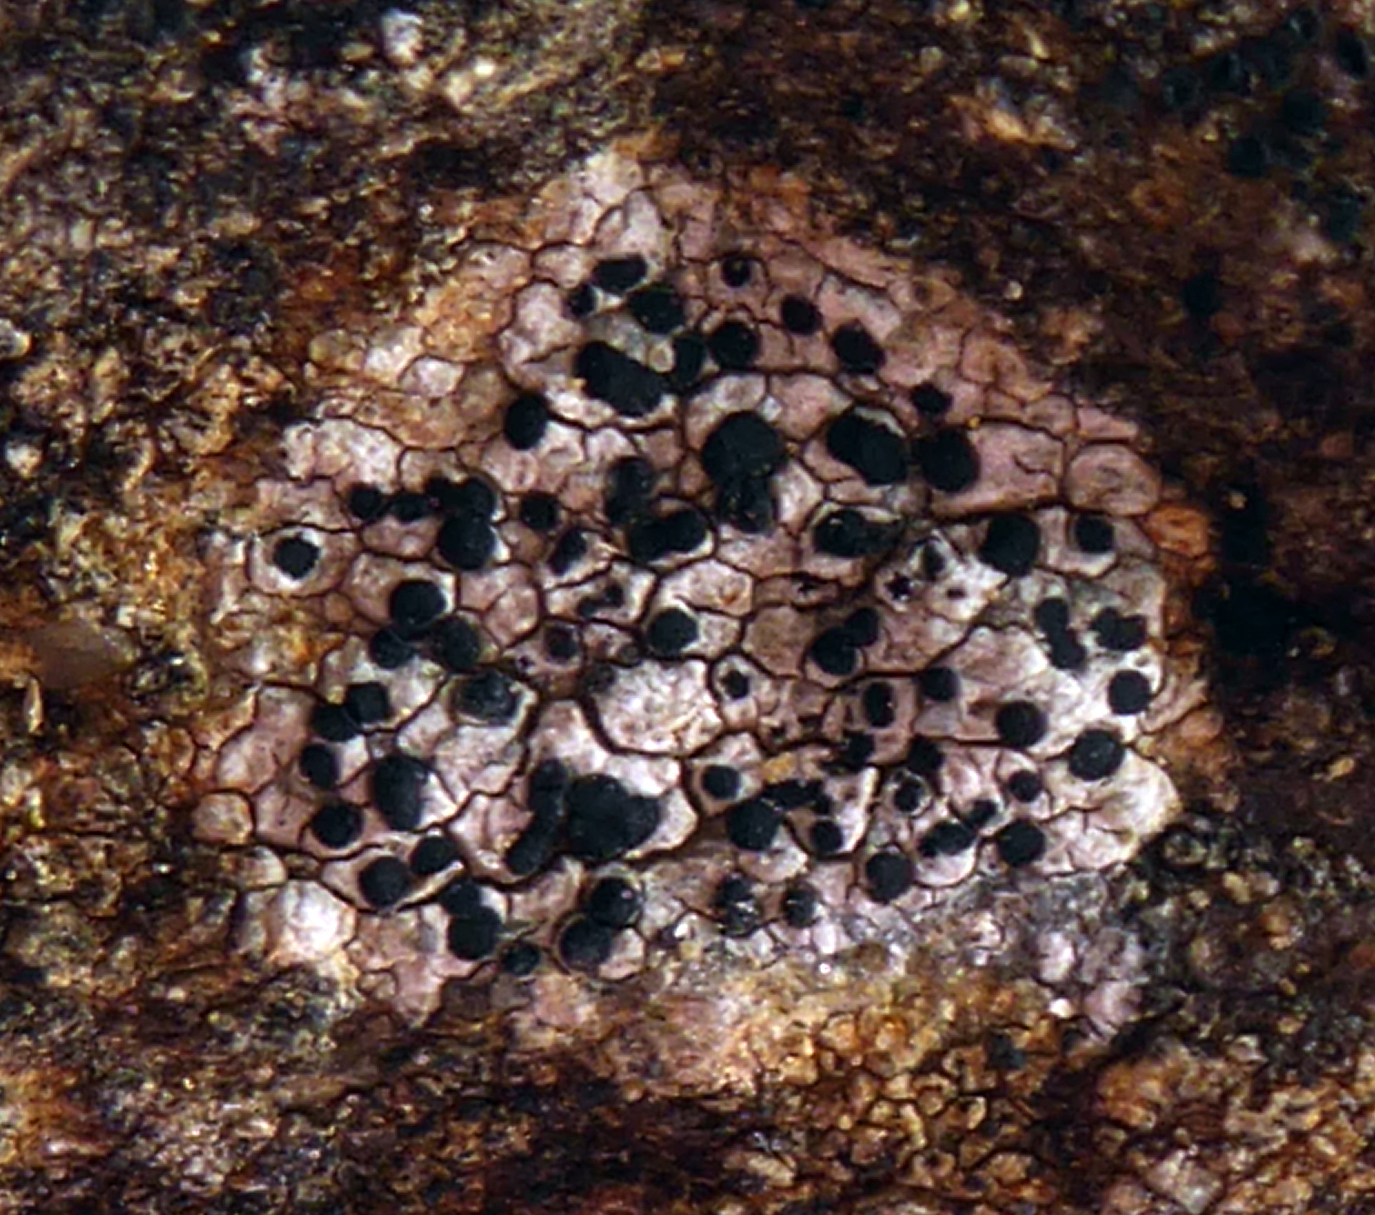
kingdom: Fungi
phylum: Ascomycota
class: Lecanoromycetes
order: Caliciales
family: Caliciaceae
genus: Buellia
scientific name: Buellia suttonensis
